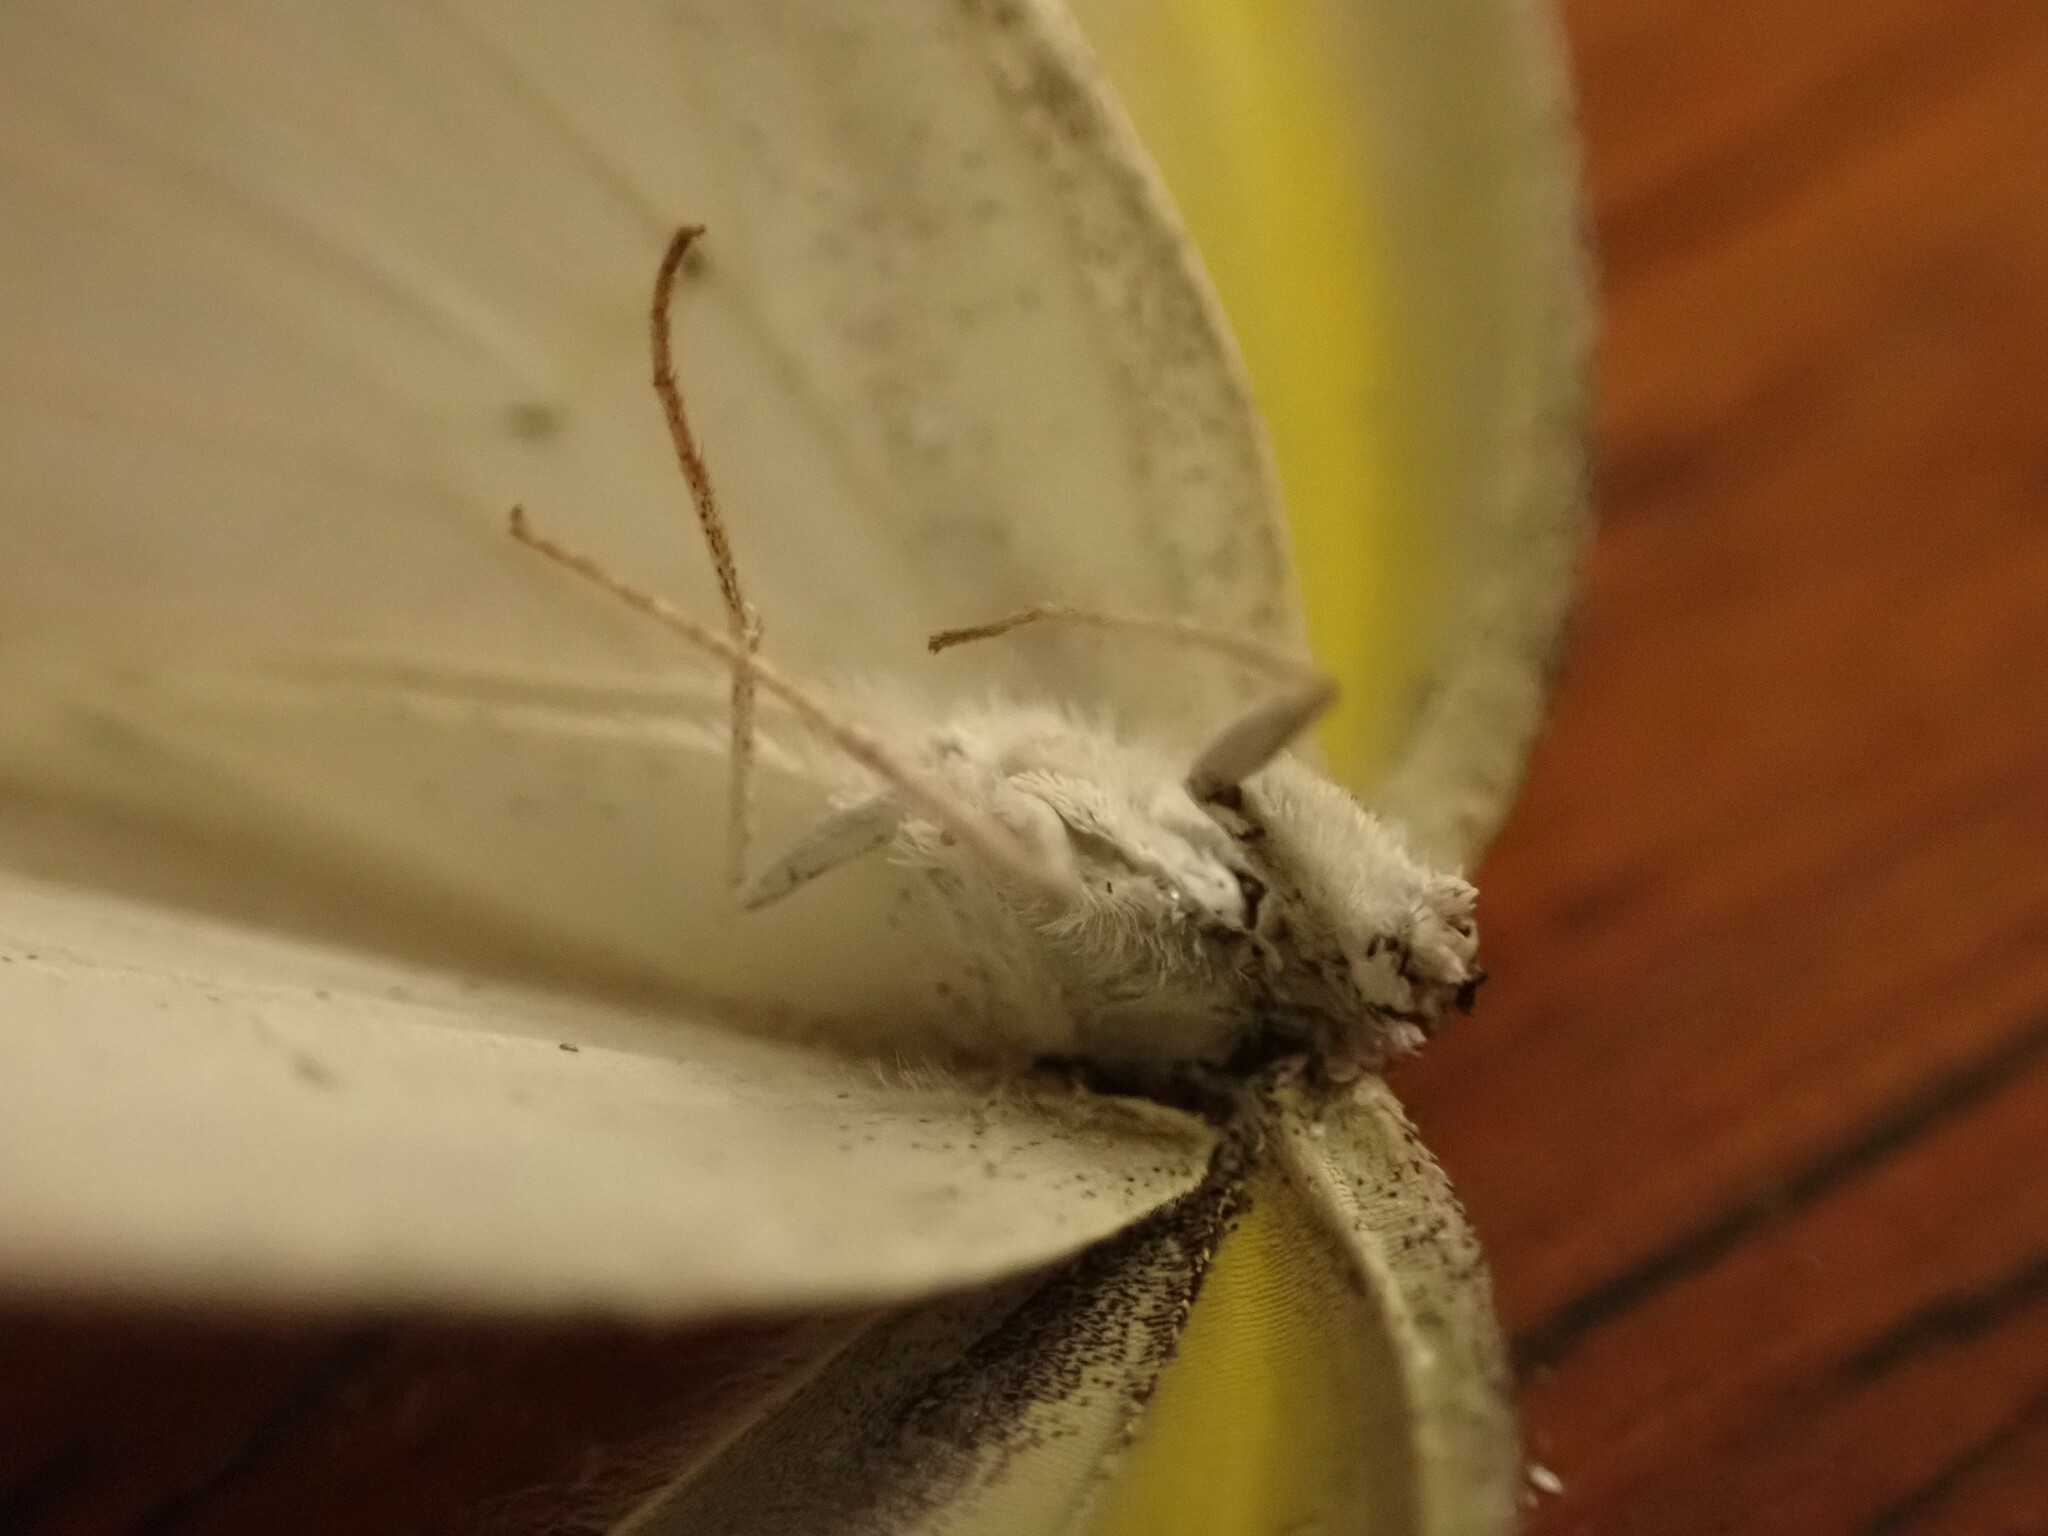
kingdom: Animalia
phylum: Arthropoda
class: Insecta
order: Lepidoptera
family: Pieridae
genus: Eurema
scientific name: Eurema elathea
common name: Banded yellow
